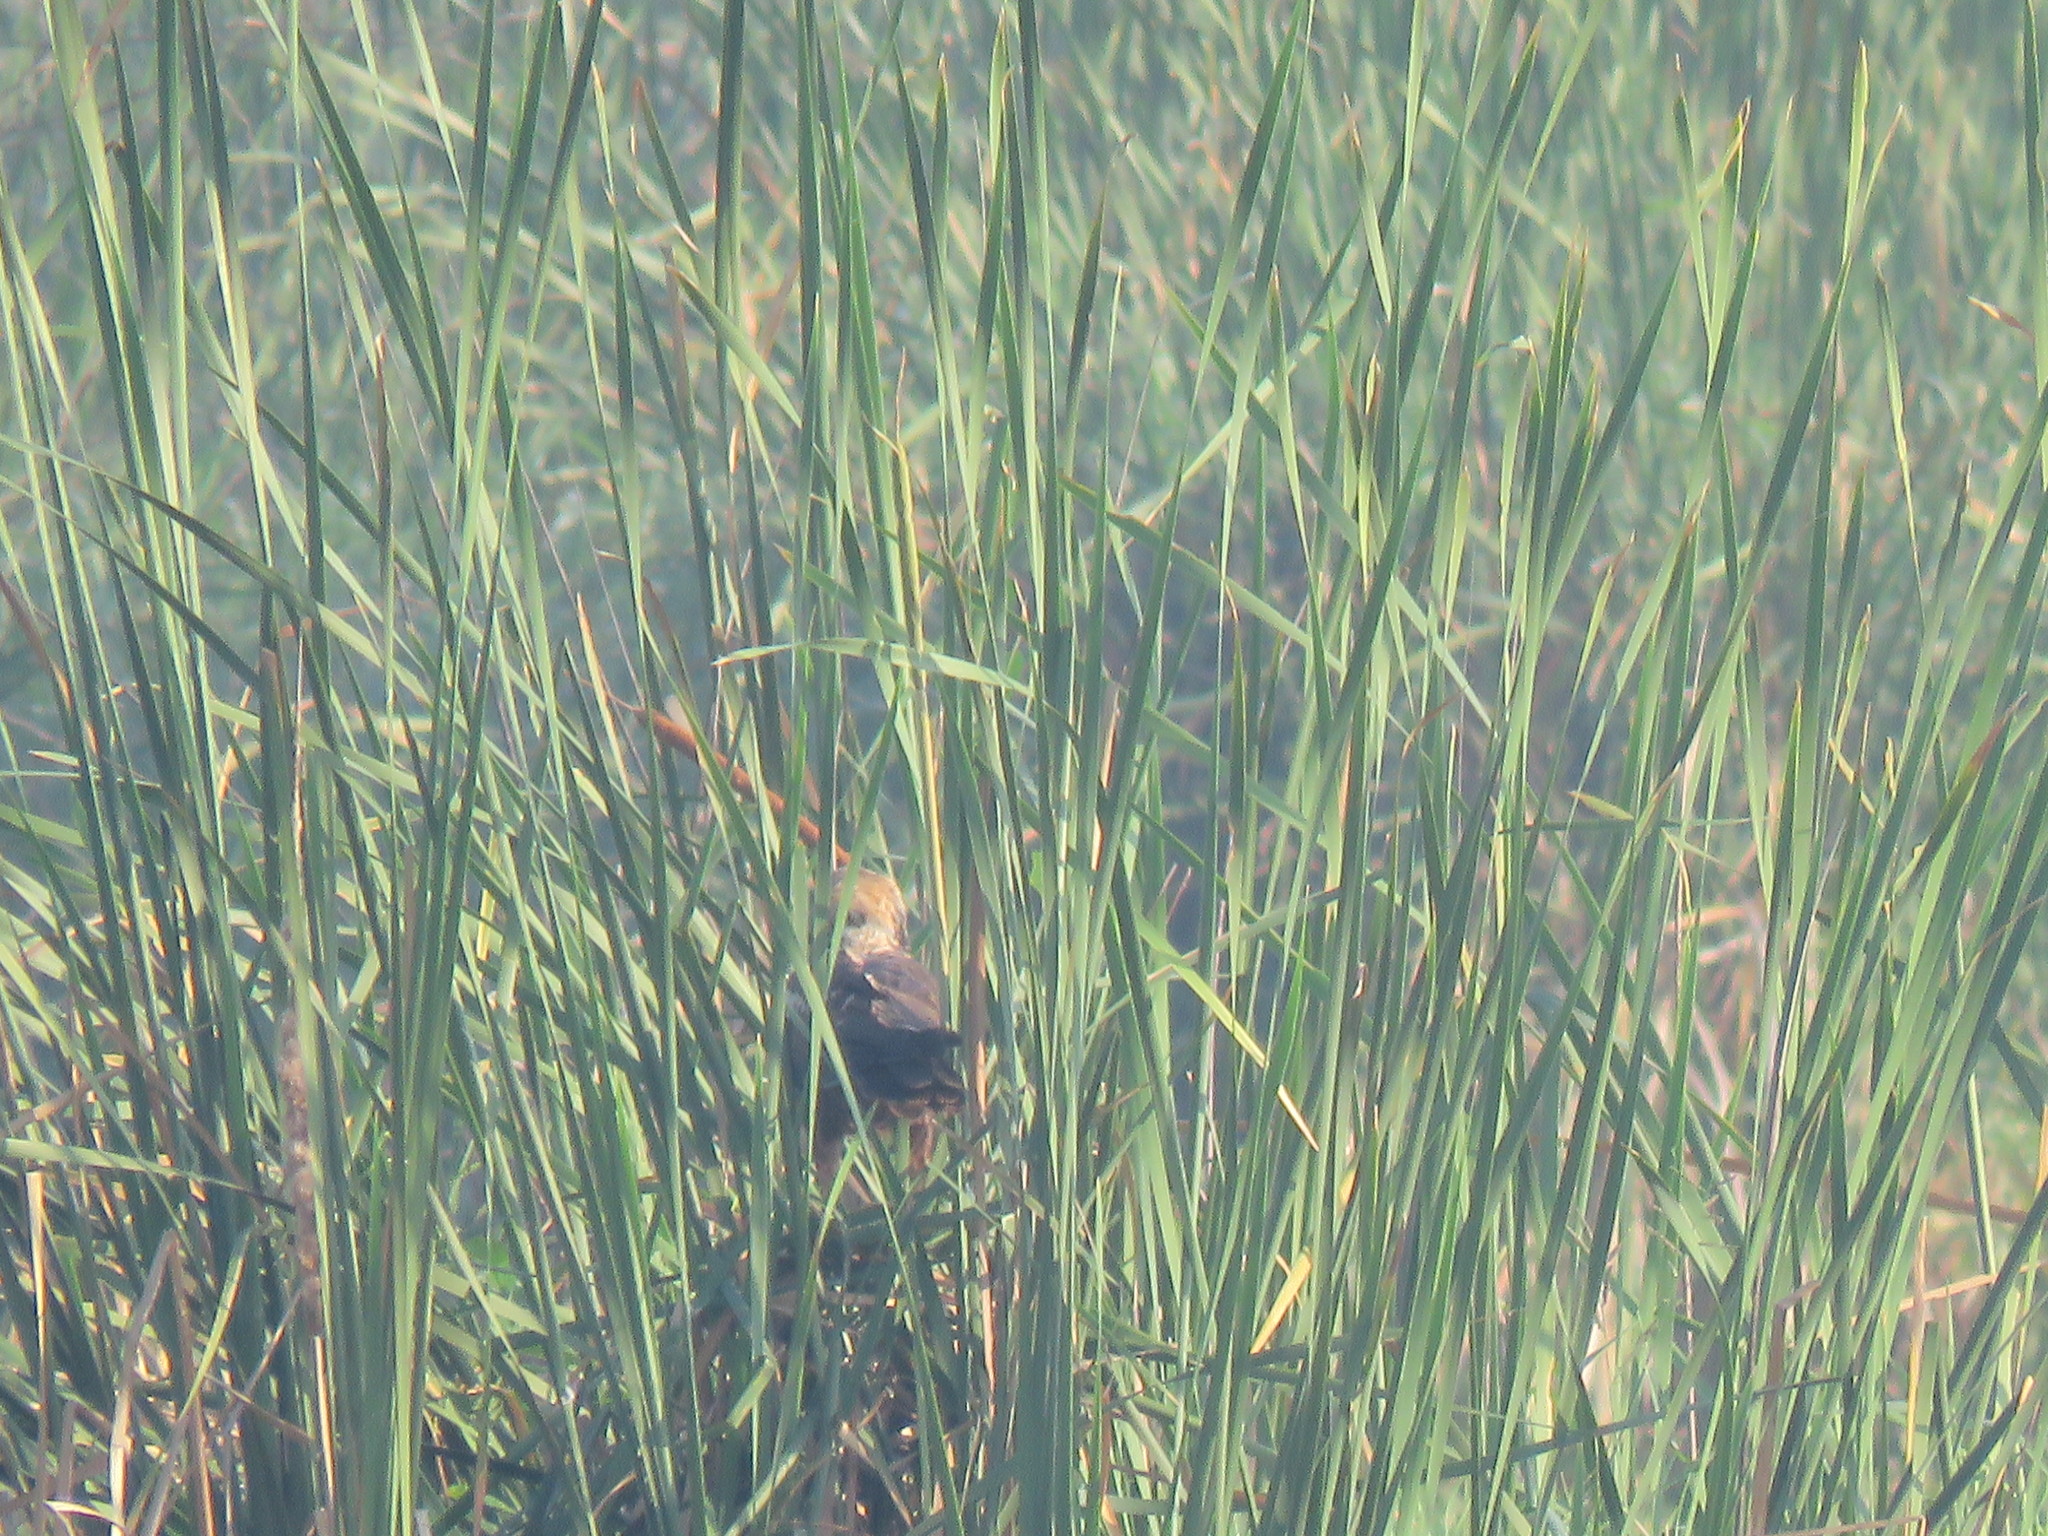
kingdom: Animalia
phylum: Chordata
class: Aves
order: Accipitriformes
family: Accipitridae
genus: Circus
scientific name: Circus aeruginosus
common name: Western marsh harrier
